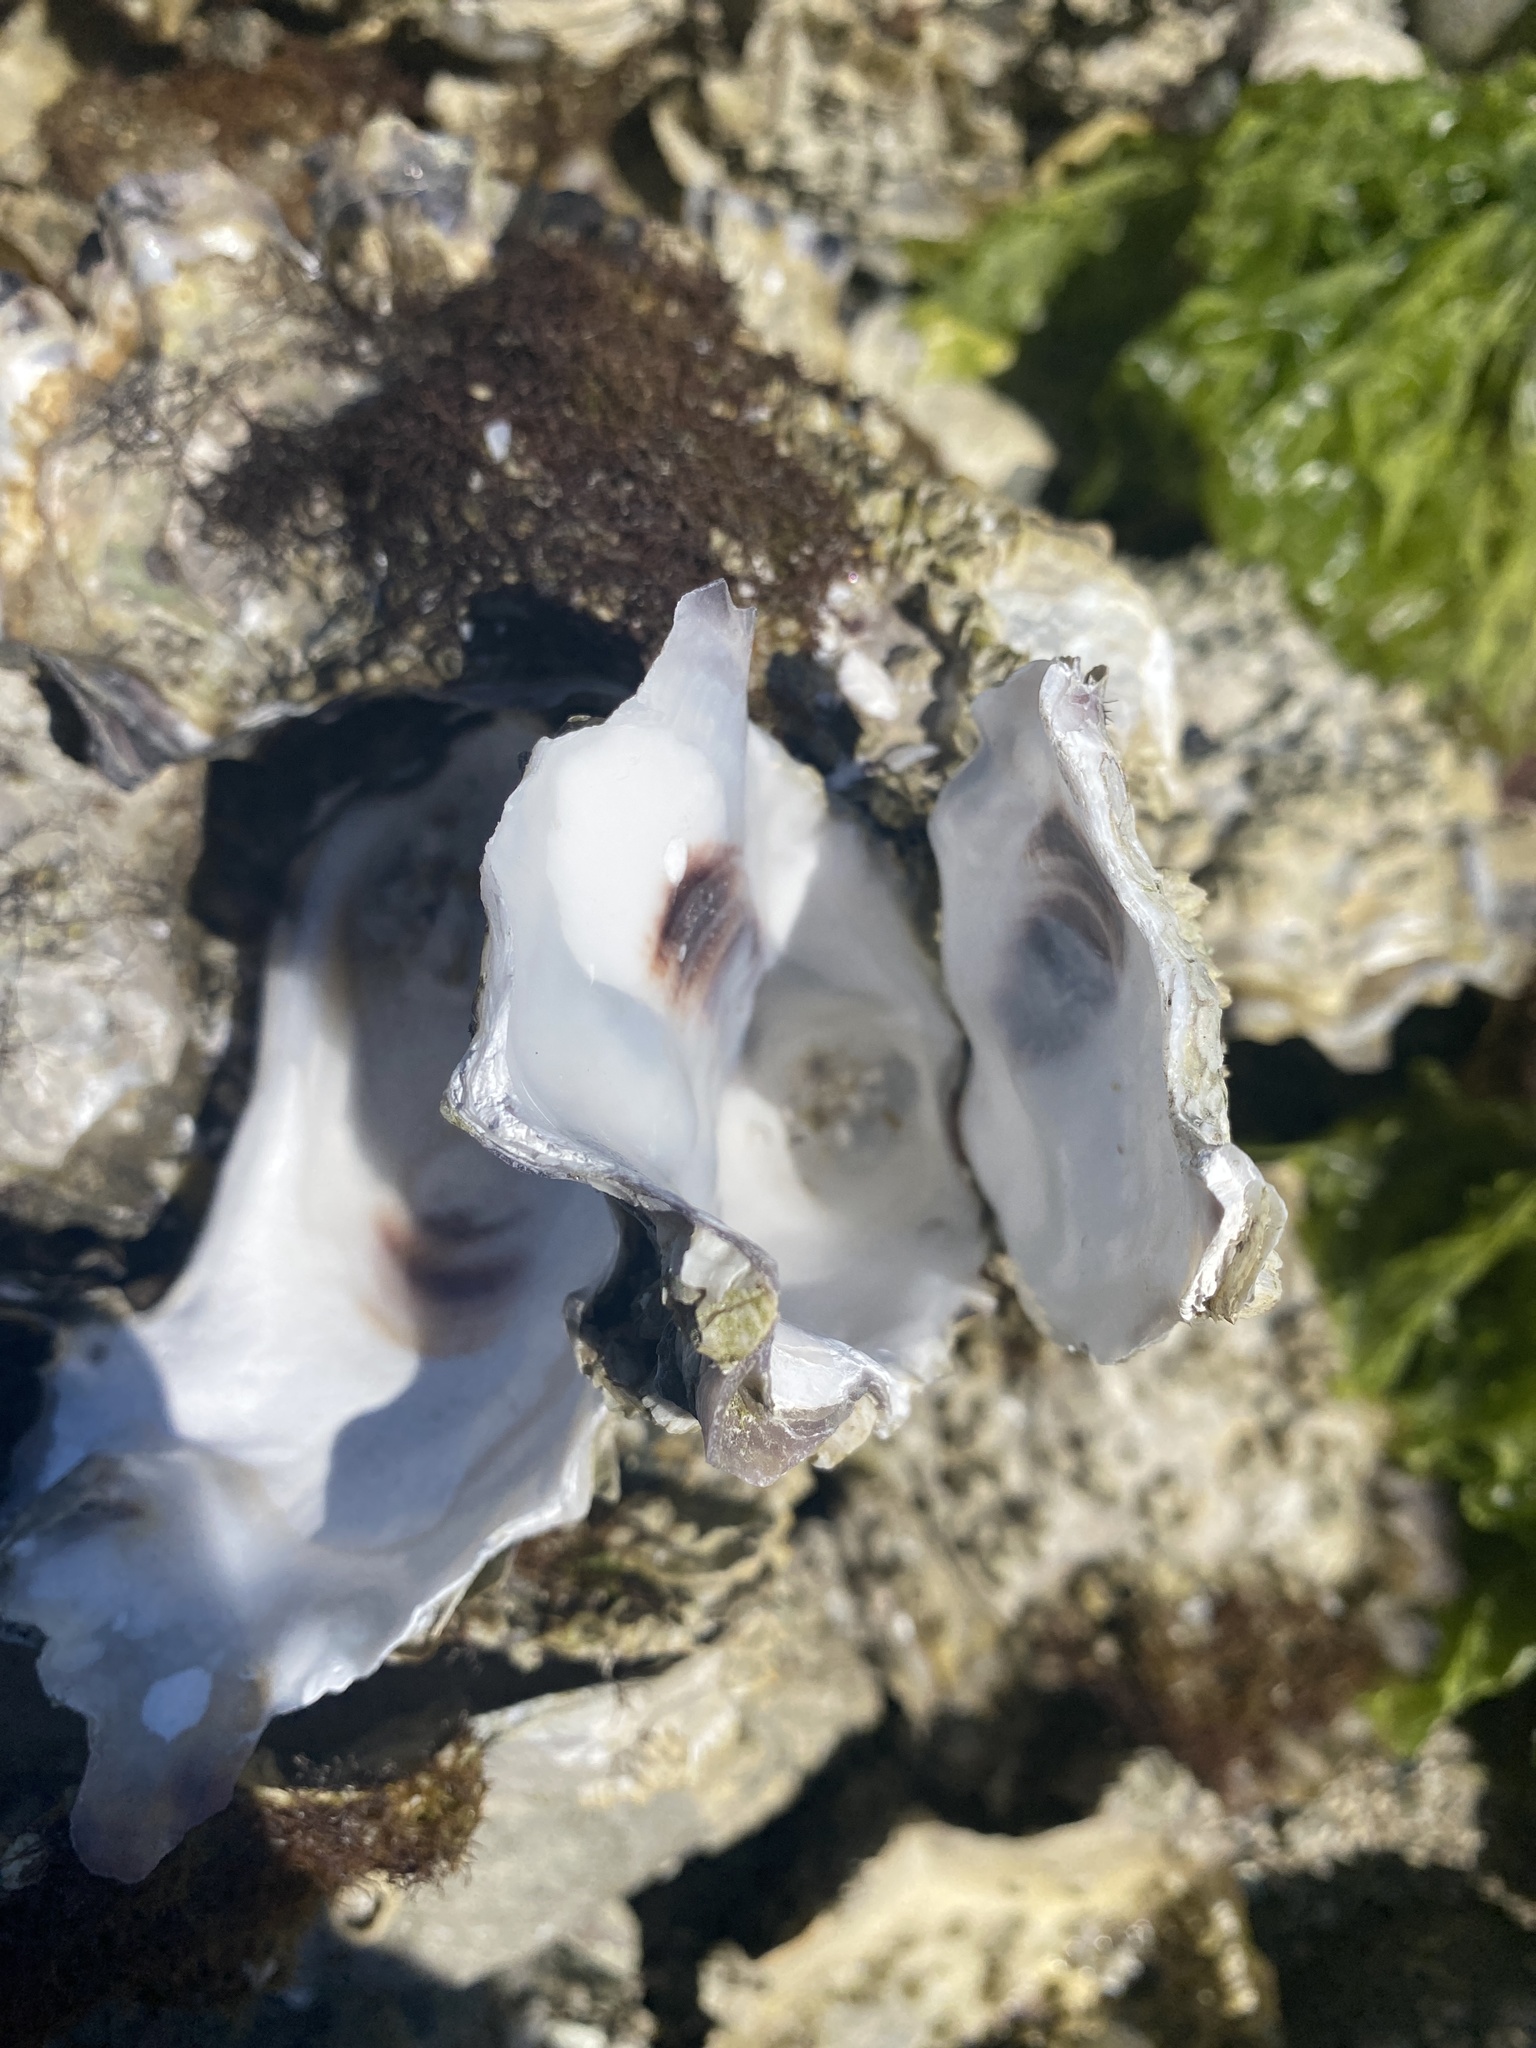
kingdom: Animalia
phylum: Mollusca
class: Bivalvia
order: Ostreida
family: Ostreidae
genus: Magallana
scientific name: Magallana gigas
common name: Pacific oyster
